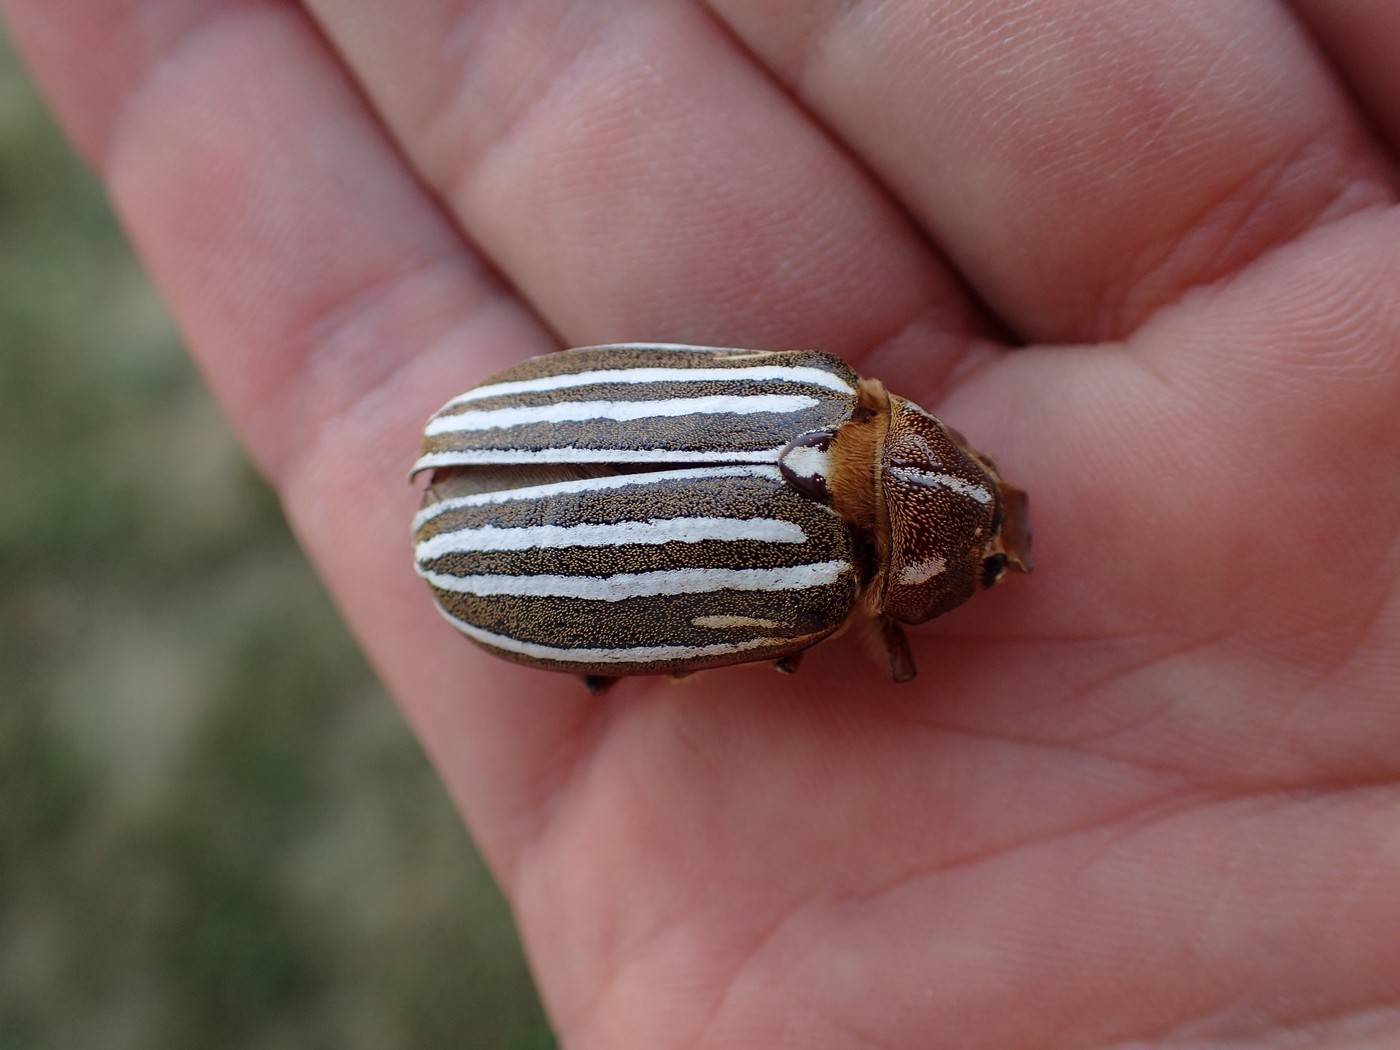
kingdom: Animalia
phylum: Arthropoda
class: Insecta
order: Coleoptera
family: Scarabaeidae
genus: Polyphylla
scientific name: Polyphylla decemlineata
